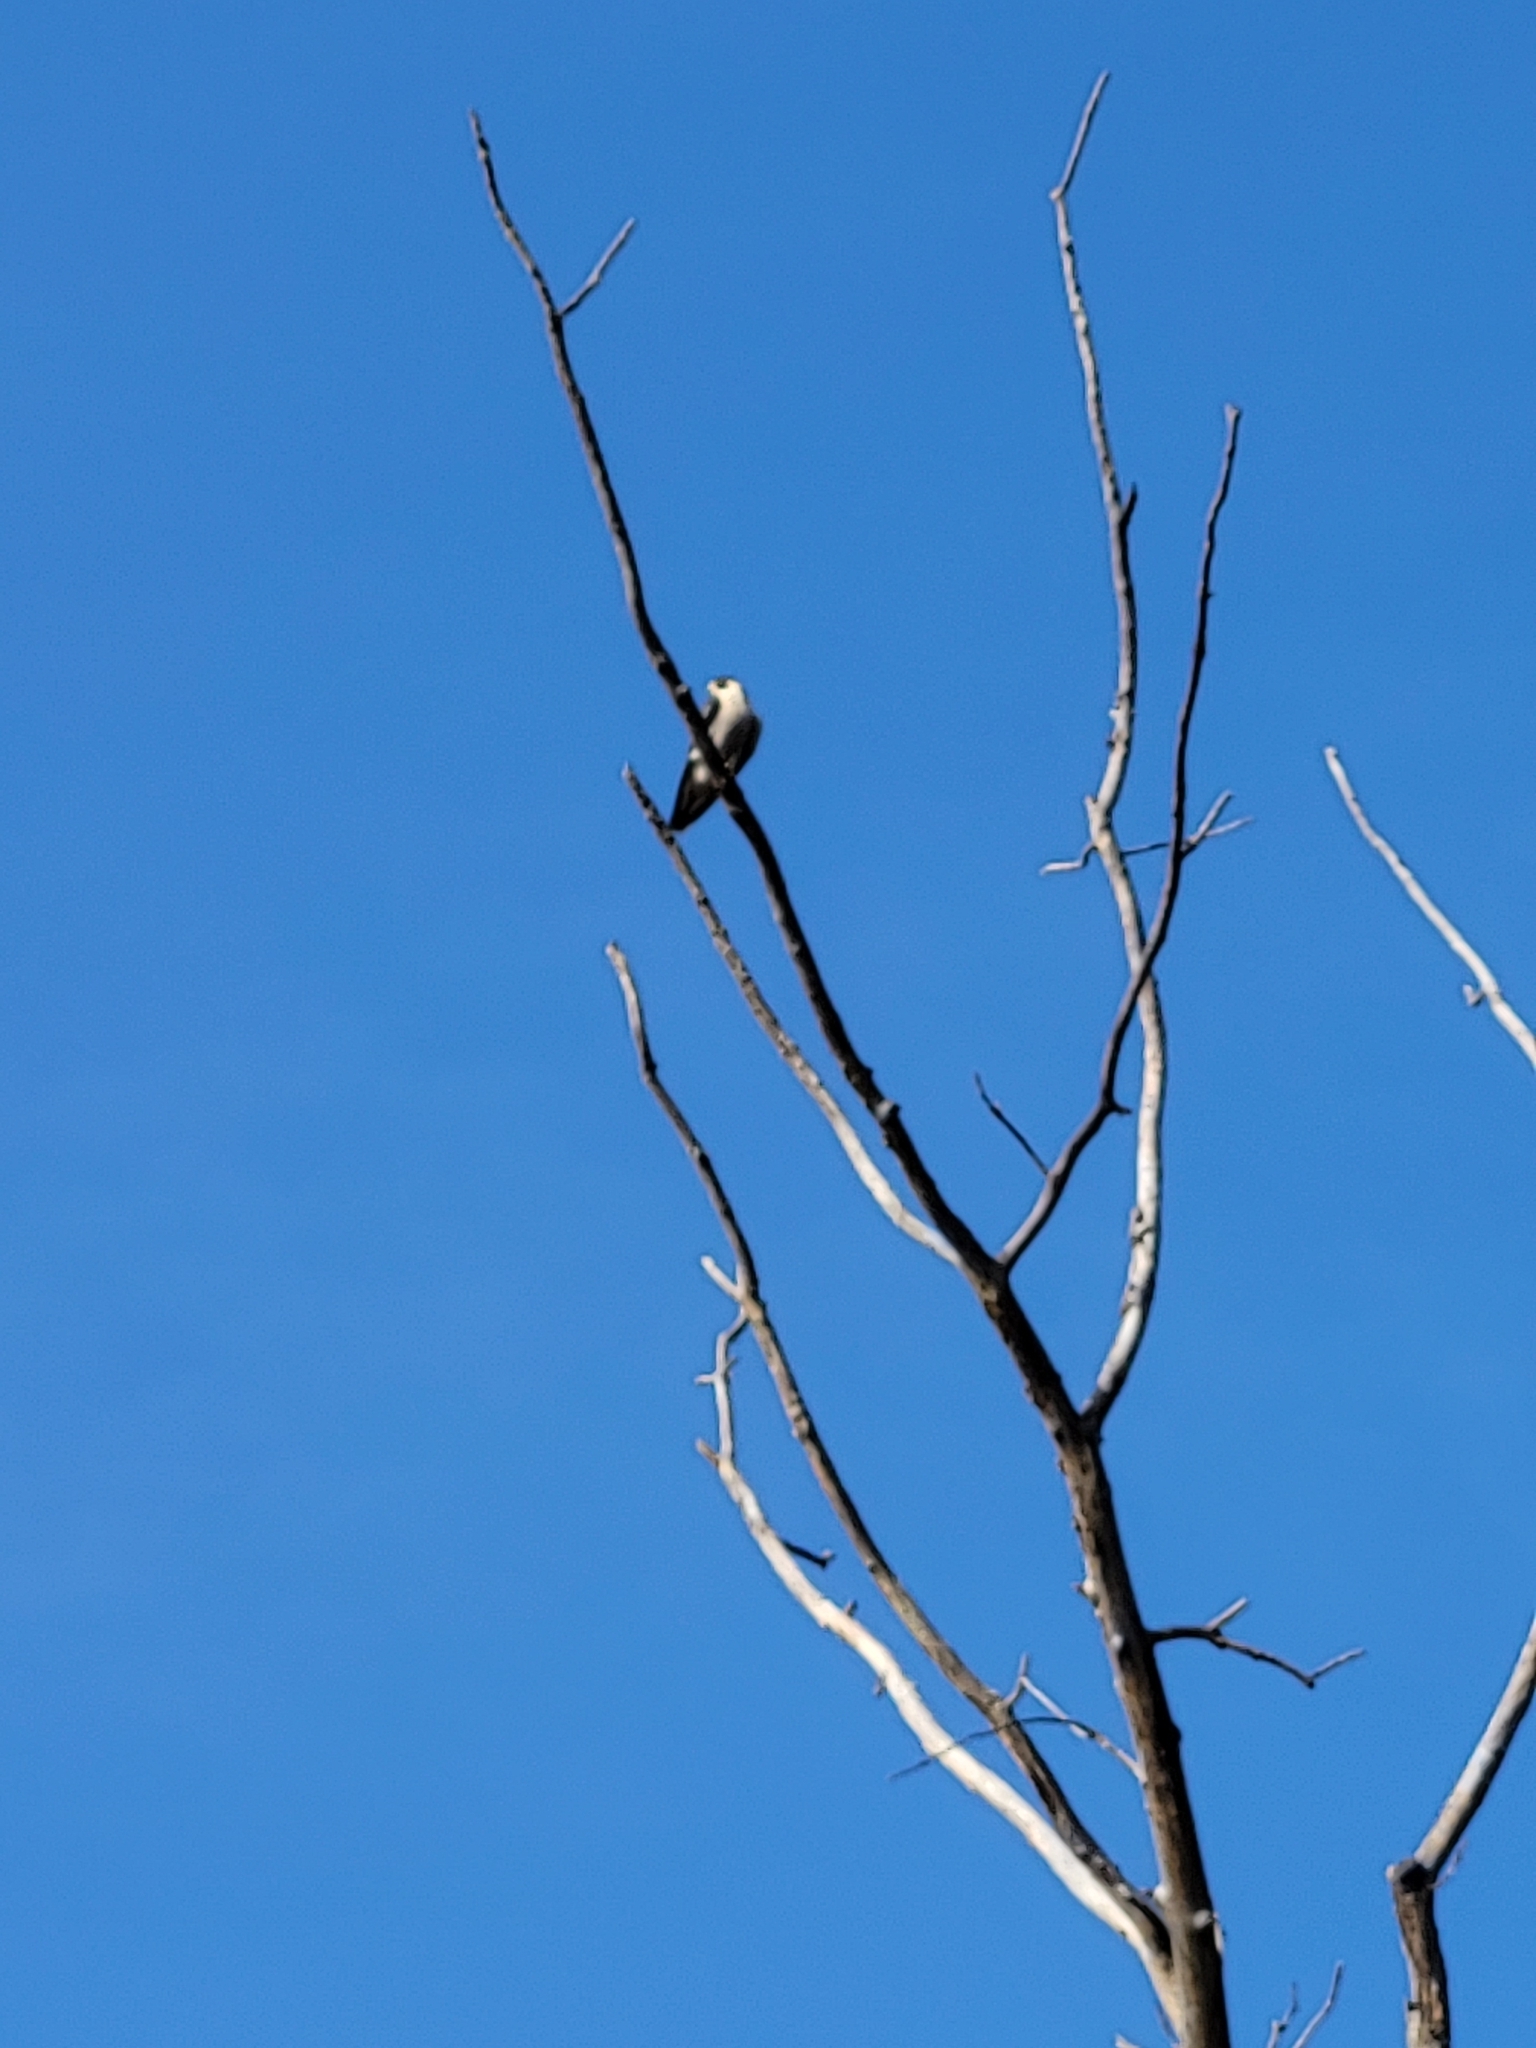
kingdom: Animalia
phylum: Chordata
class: Aves
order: Falconiformes
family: Falconidae
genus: Falco
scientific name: Falco peregrinus
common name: Peregrine falcon
